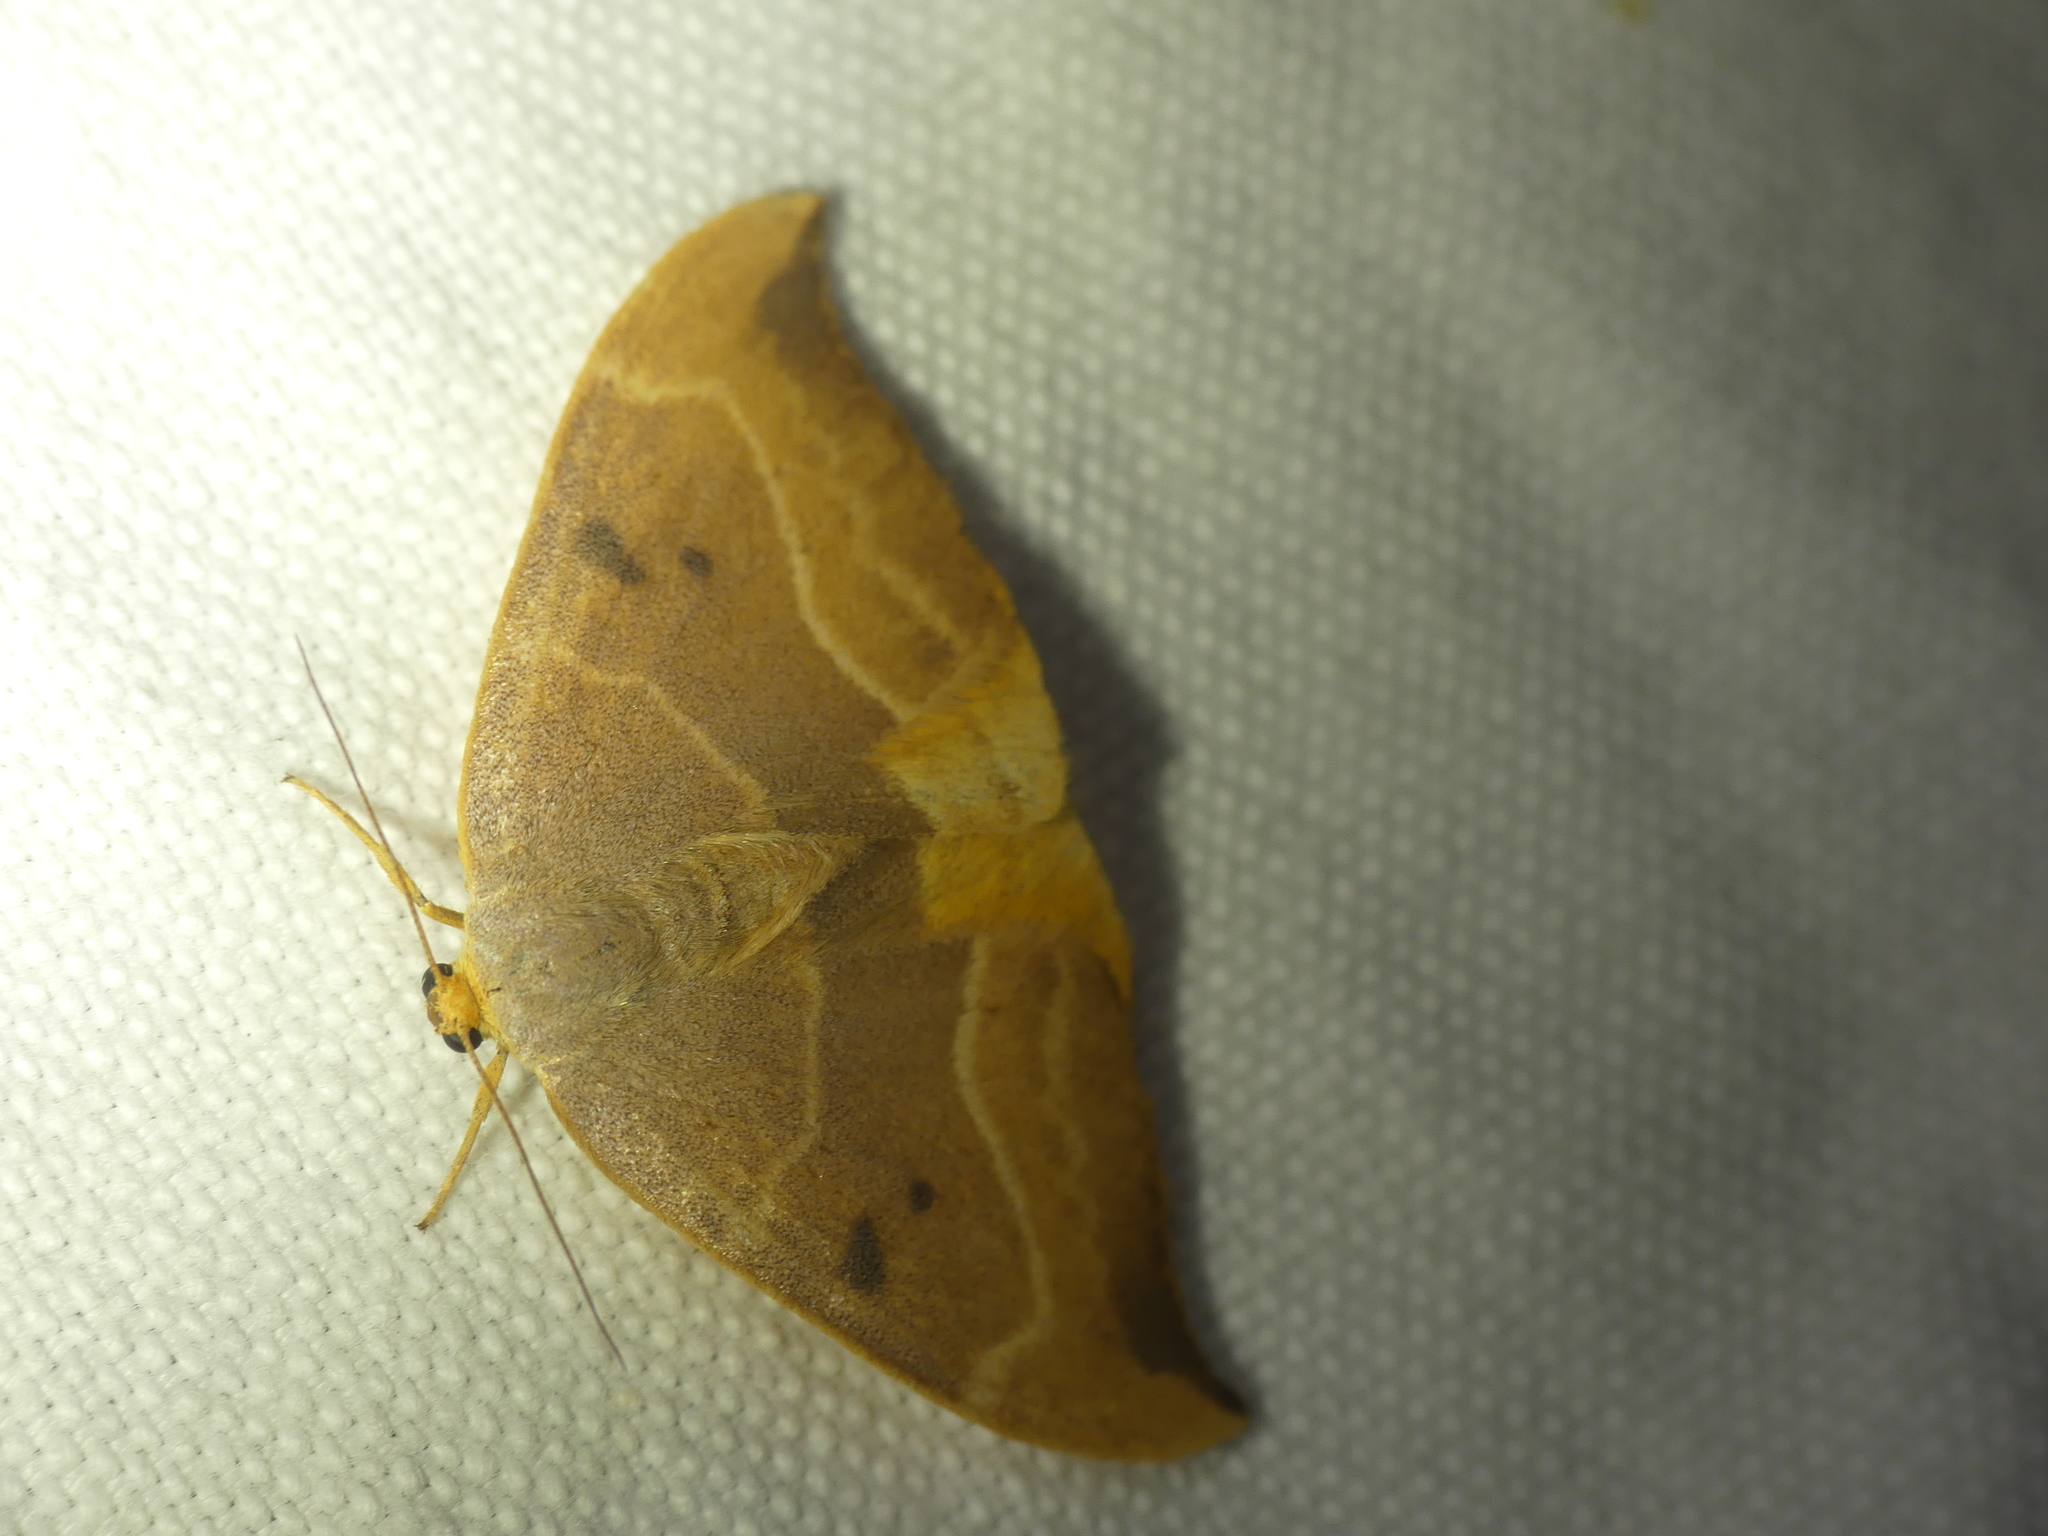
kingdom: Animalia
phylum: Arthropoda
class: Insecta
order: Lepidoptera
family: Drepanidae
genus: Watsonalla
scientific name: Watsonalla binaria
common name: Oak hook-tip
